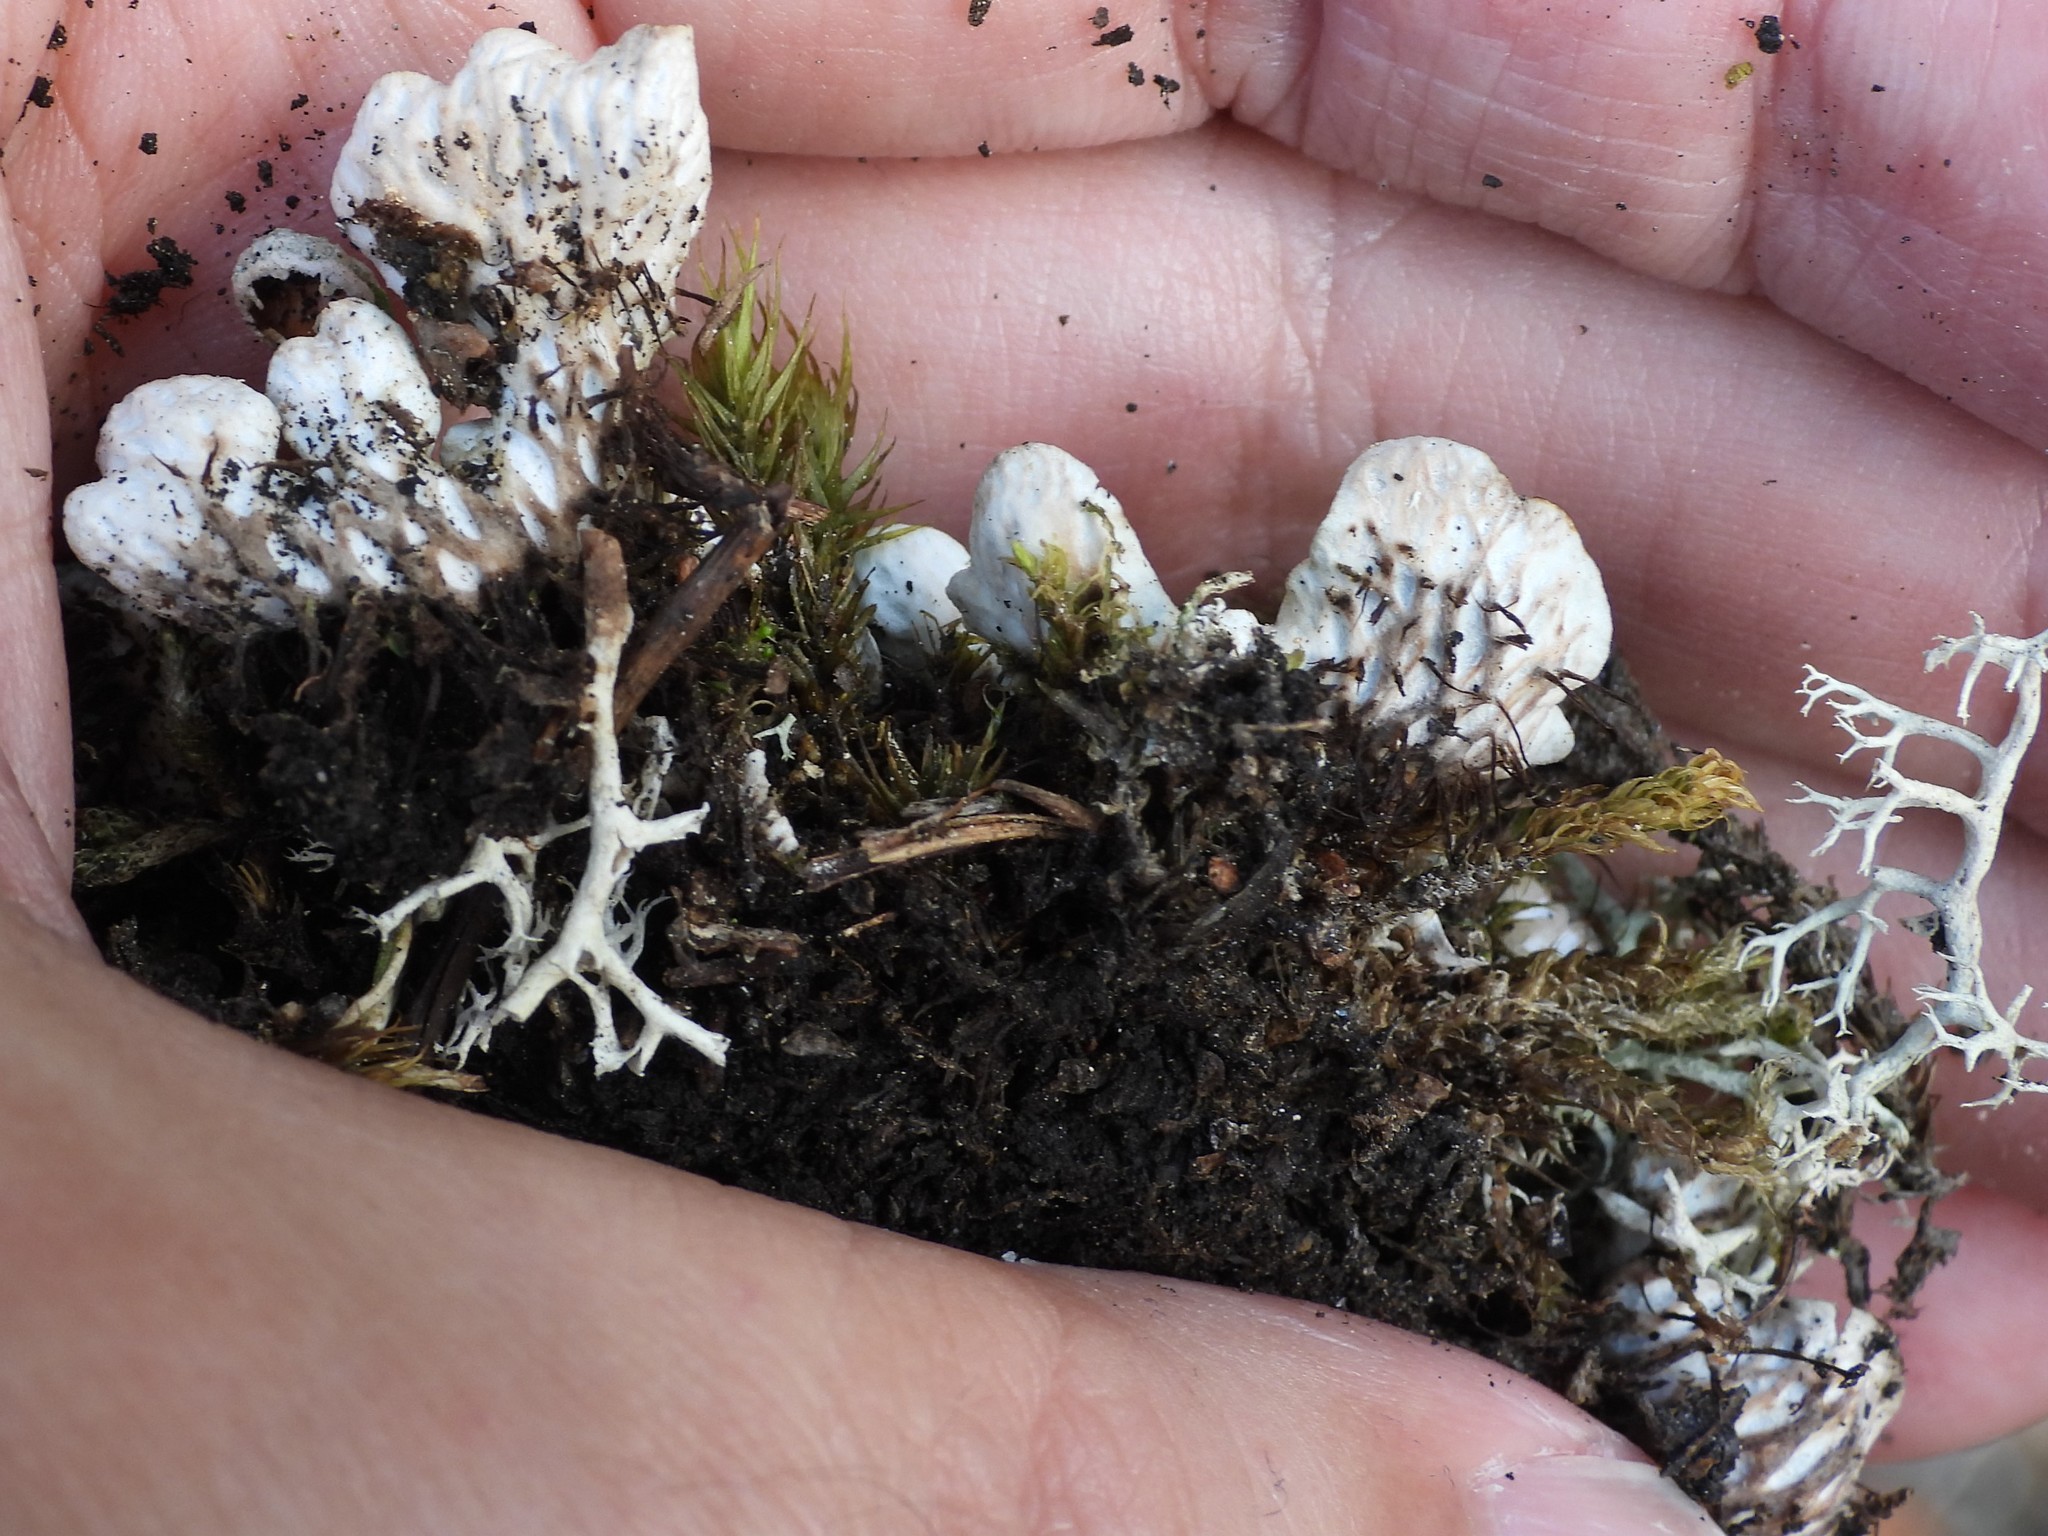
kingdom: Fungi
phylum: Ascomycota
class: Lecanoromycetes
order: Peltigerales
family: Peltigeraceae
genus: Peltigera
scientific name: Peltigera leucophlebia
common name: Ruffled freckle pelt lichen
